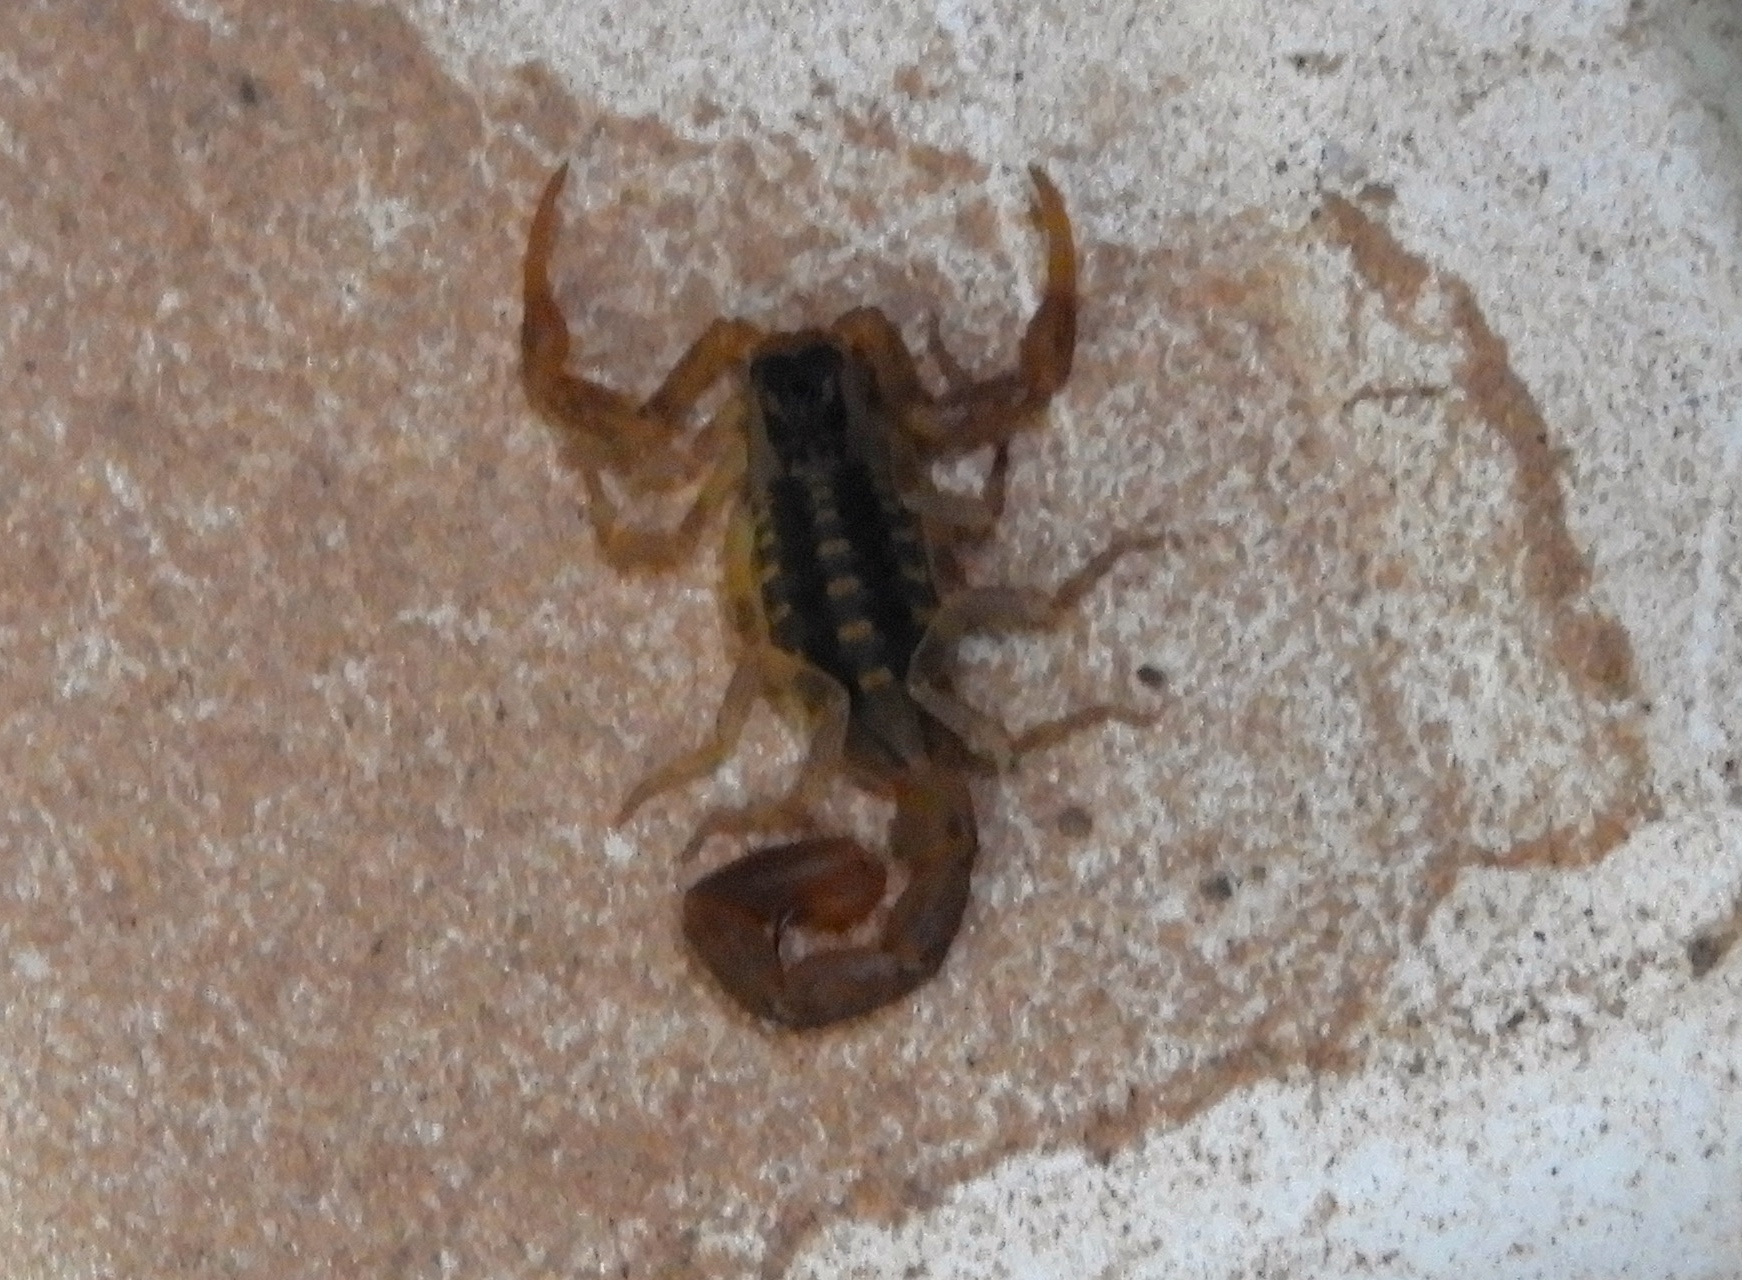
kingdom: Animalia
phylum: Arthropoda
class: Arachnida
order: Scorpiones
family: Buthidae
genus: Centruroides
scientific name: Centruroides baldazoi
